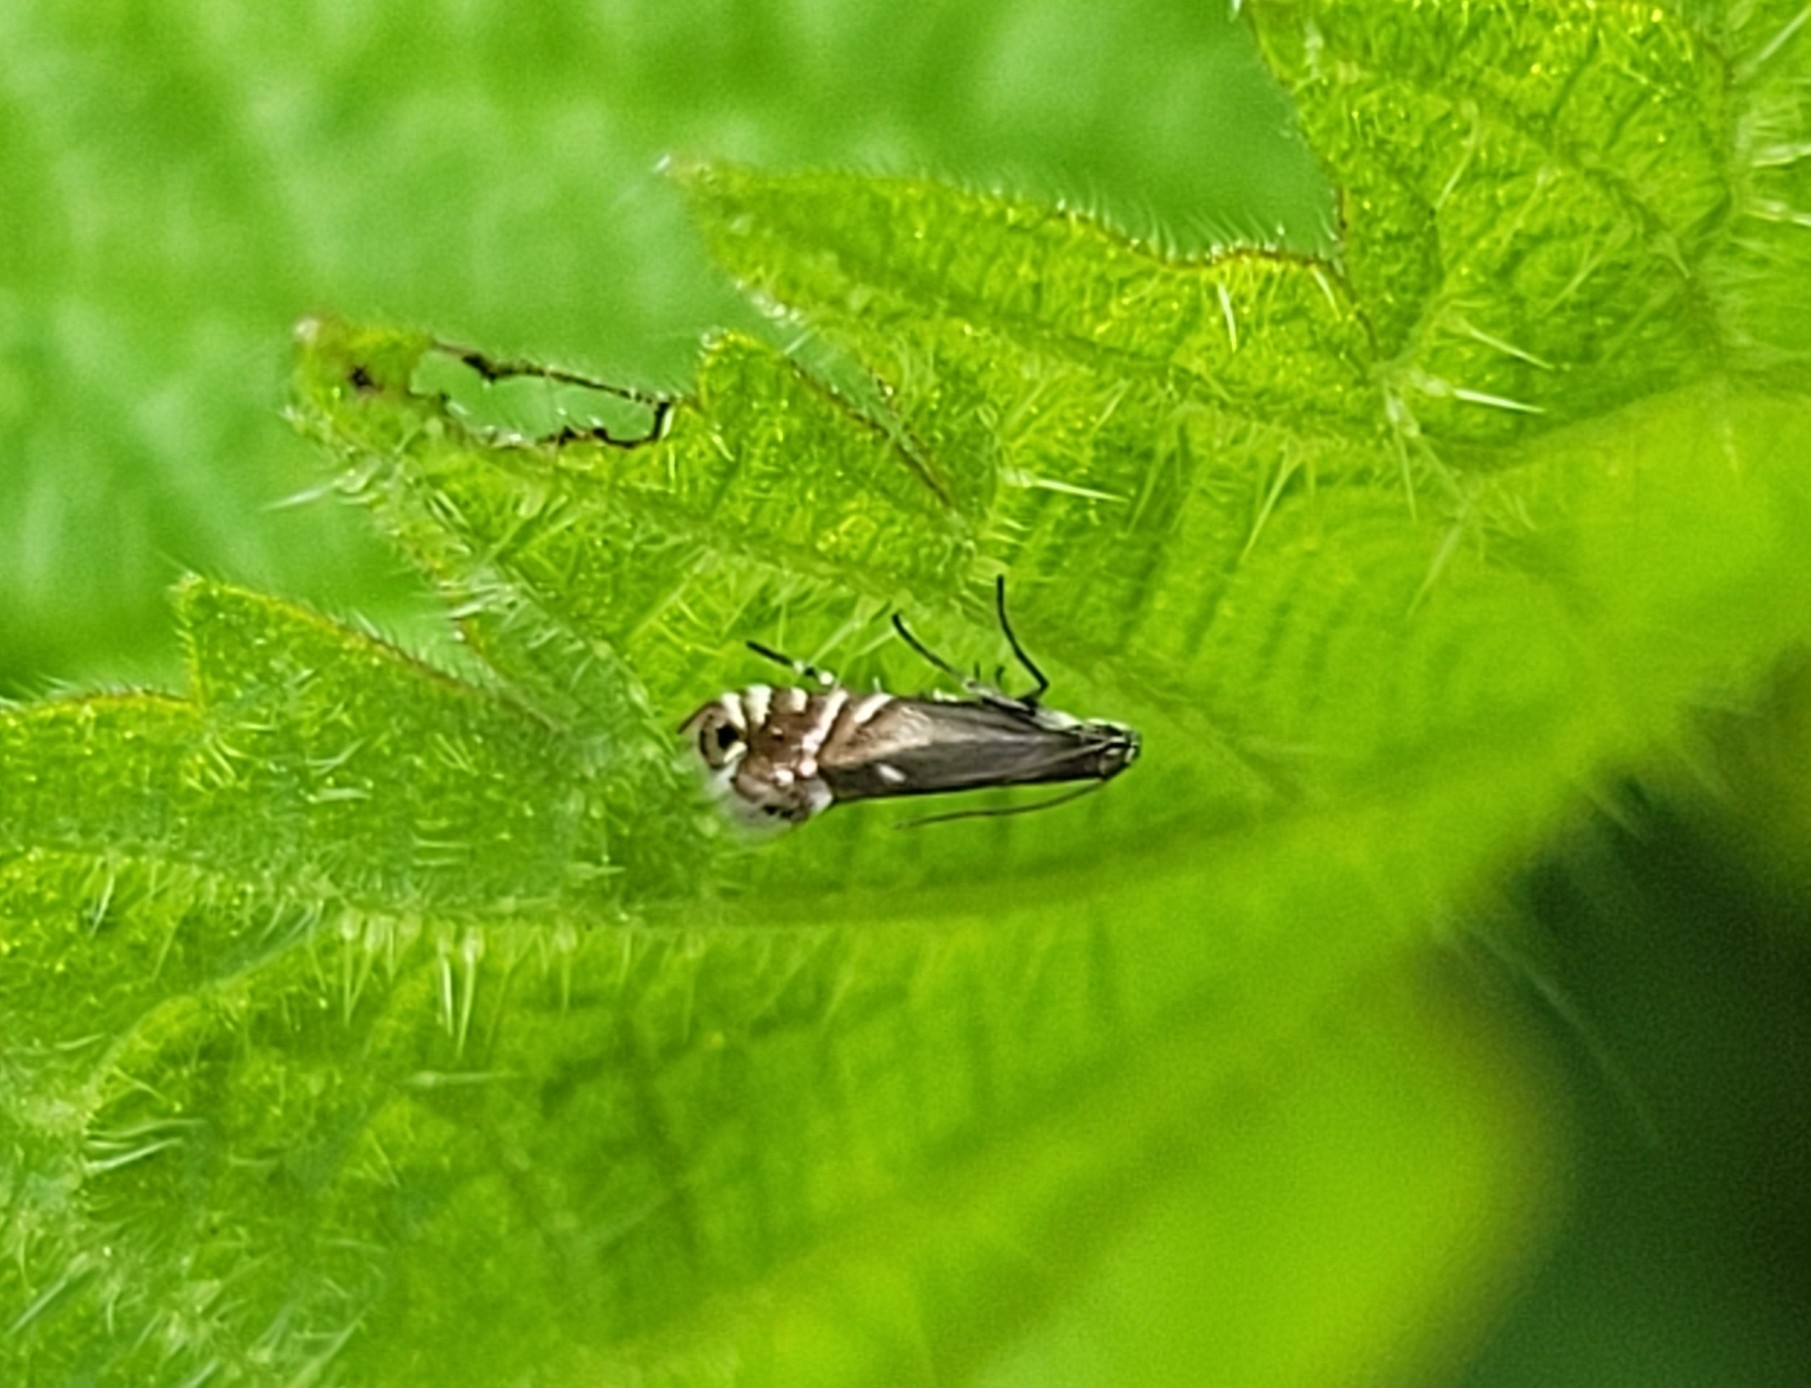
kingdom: Animalia
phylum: Arthropoda
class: Insecta
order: Lepidoptera
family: Glyphipterigidae
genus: Glyphipterix
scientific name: Glyphipterix simpliciella
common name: Cocksfoot moth
